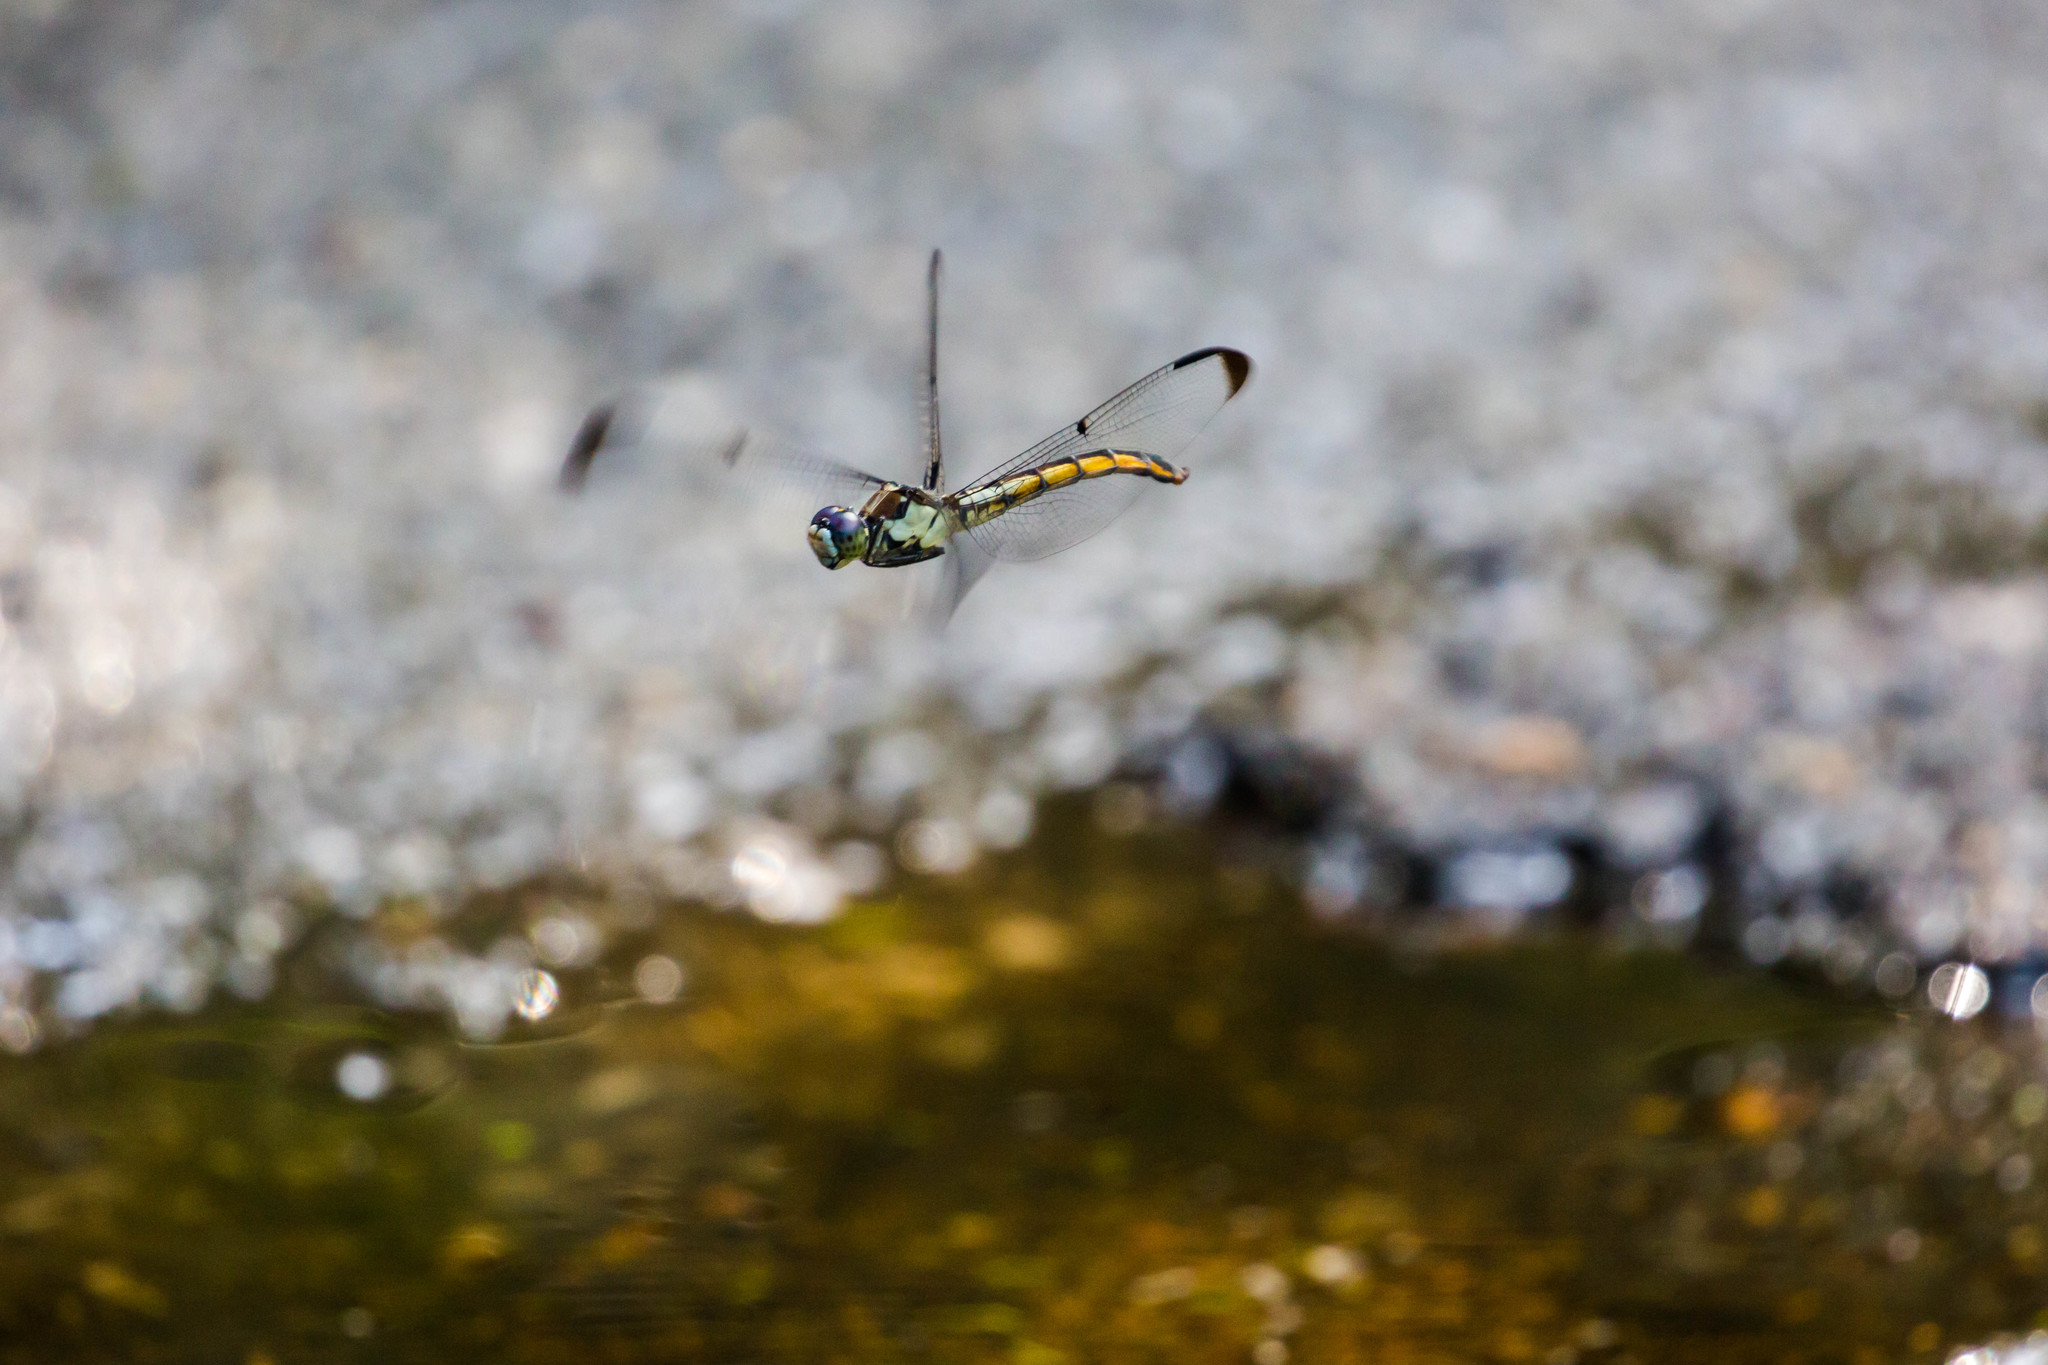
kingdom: Animalia
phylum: Arthropoda
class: Insecta
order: Odonata
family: Libellulidae
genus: Libellula
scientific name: Libellula vibrans
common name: Great blue skimmer
